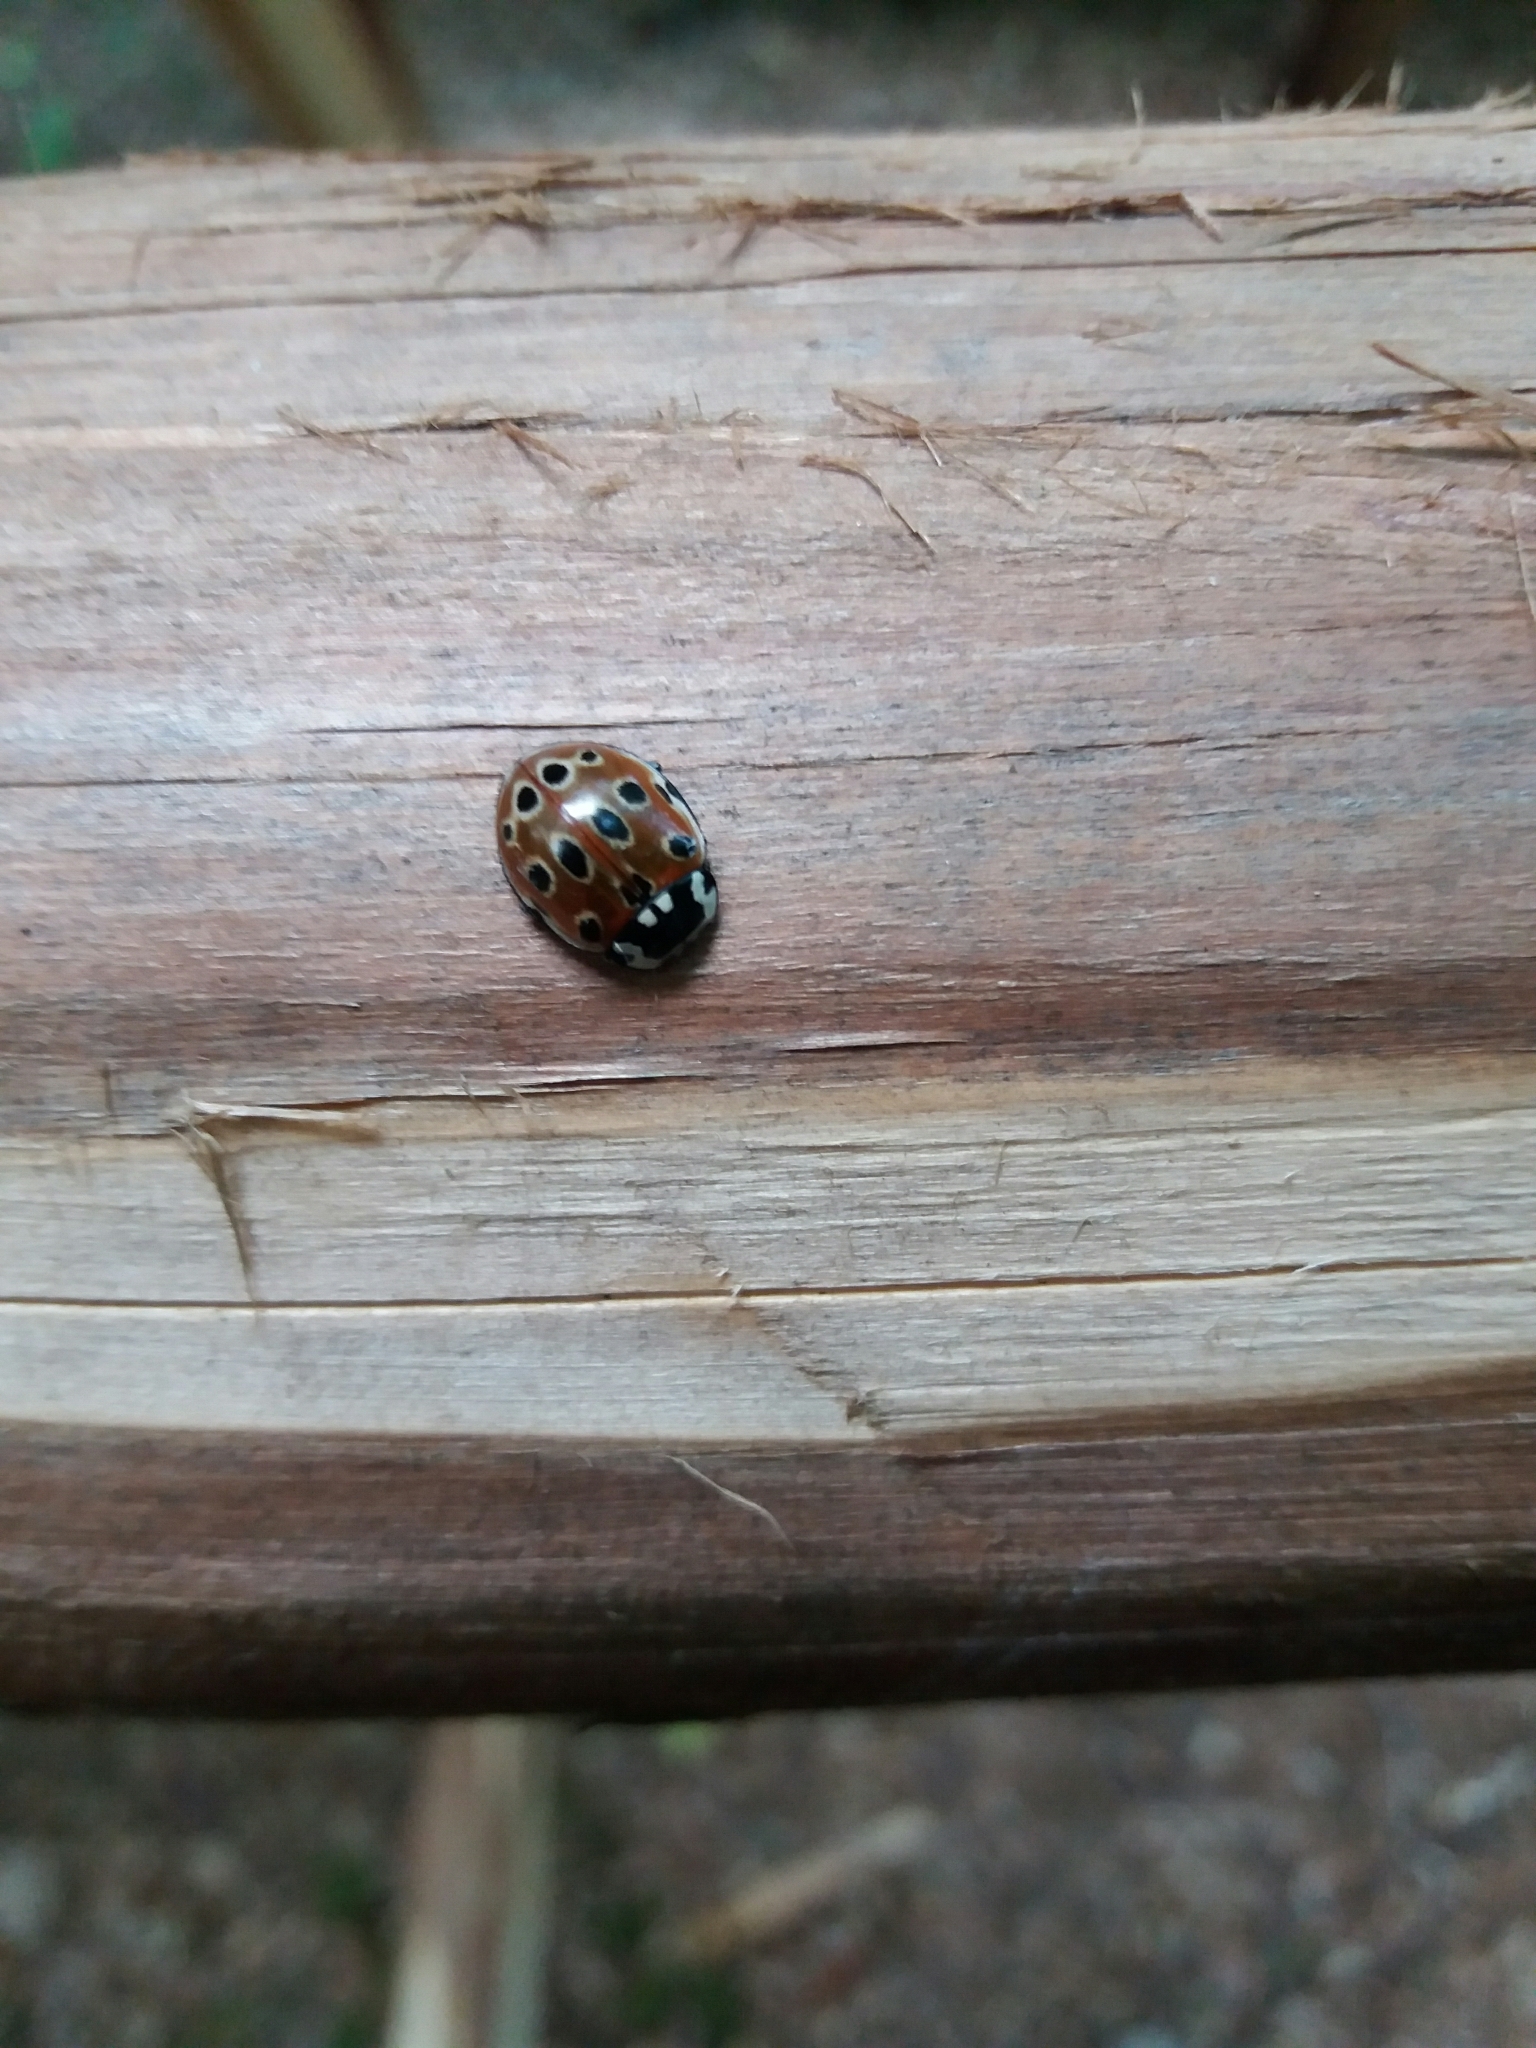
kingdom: Animalia
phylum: Arthropoda
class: Insecta
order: Coleoptera
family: Coccinellidae
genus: Anatis
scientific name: Anatis ocellata
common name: Eyed ladybird
